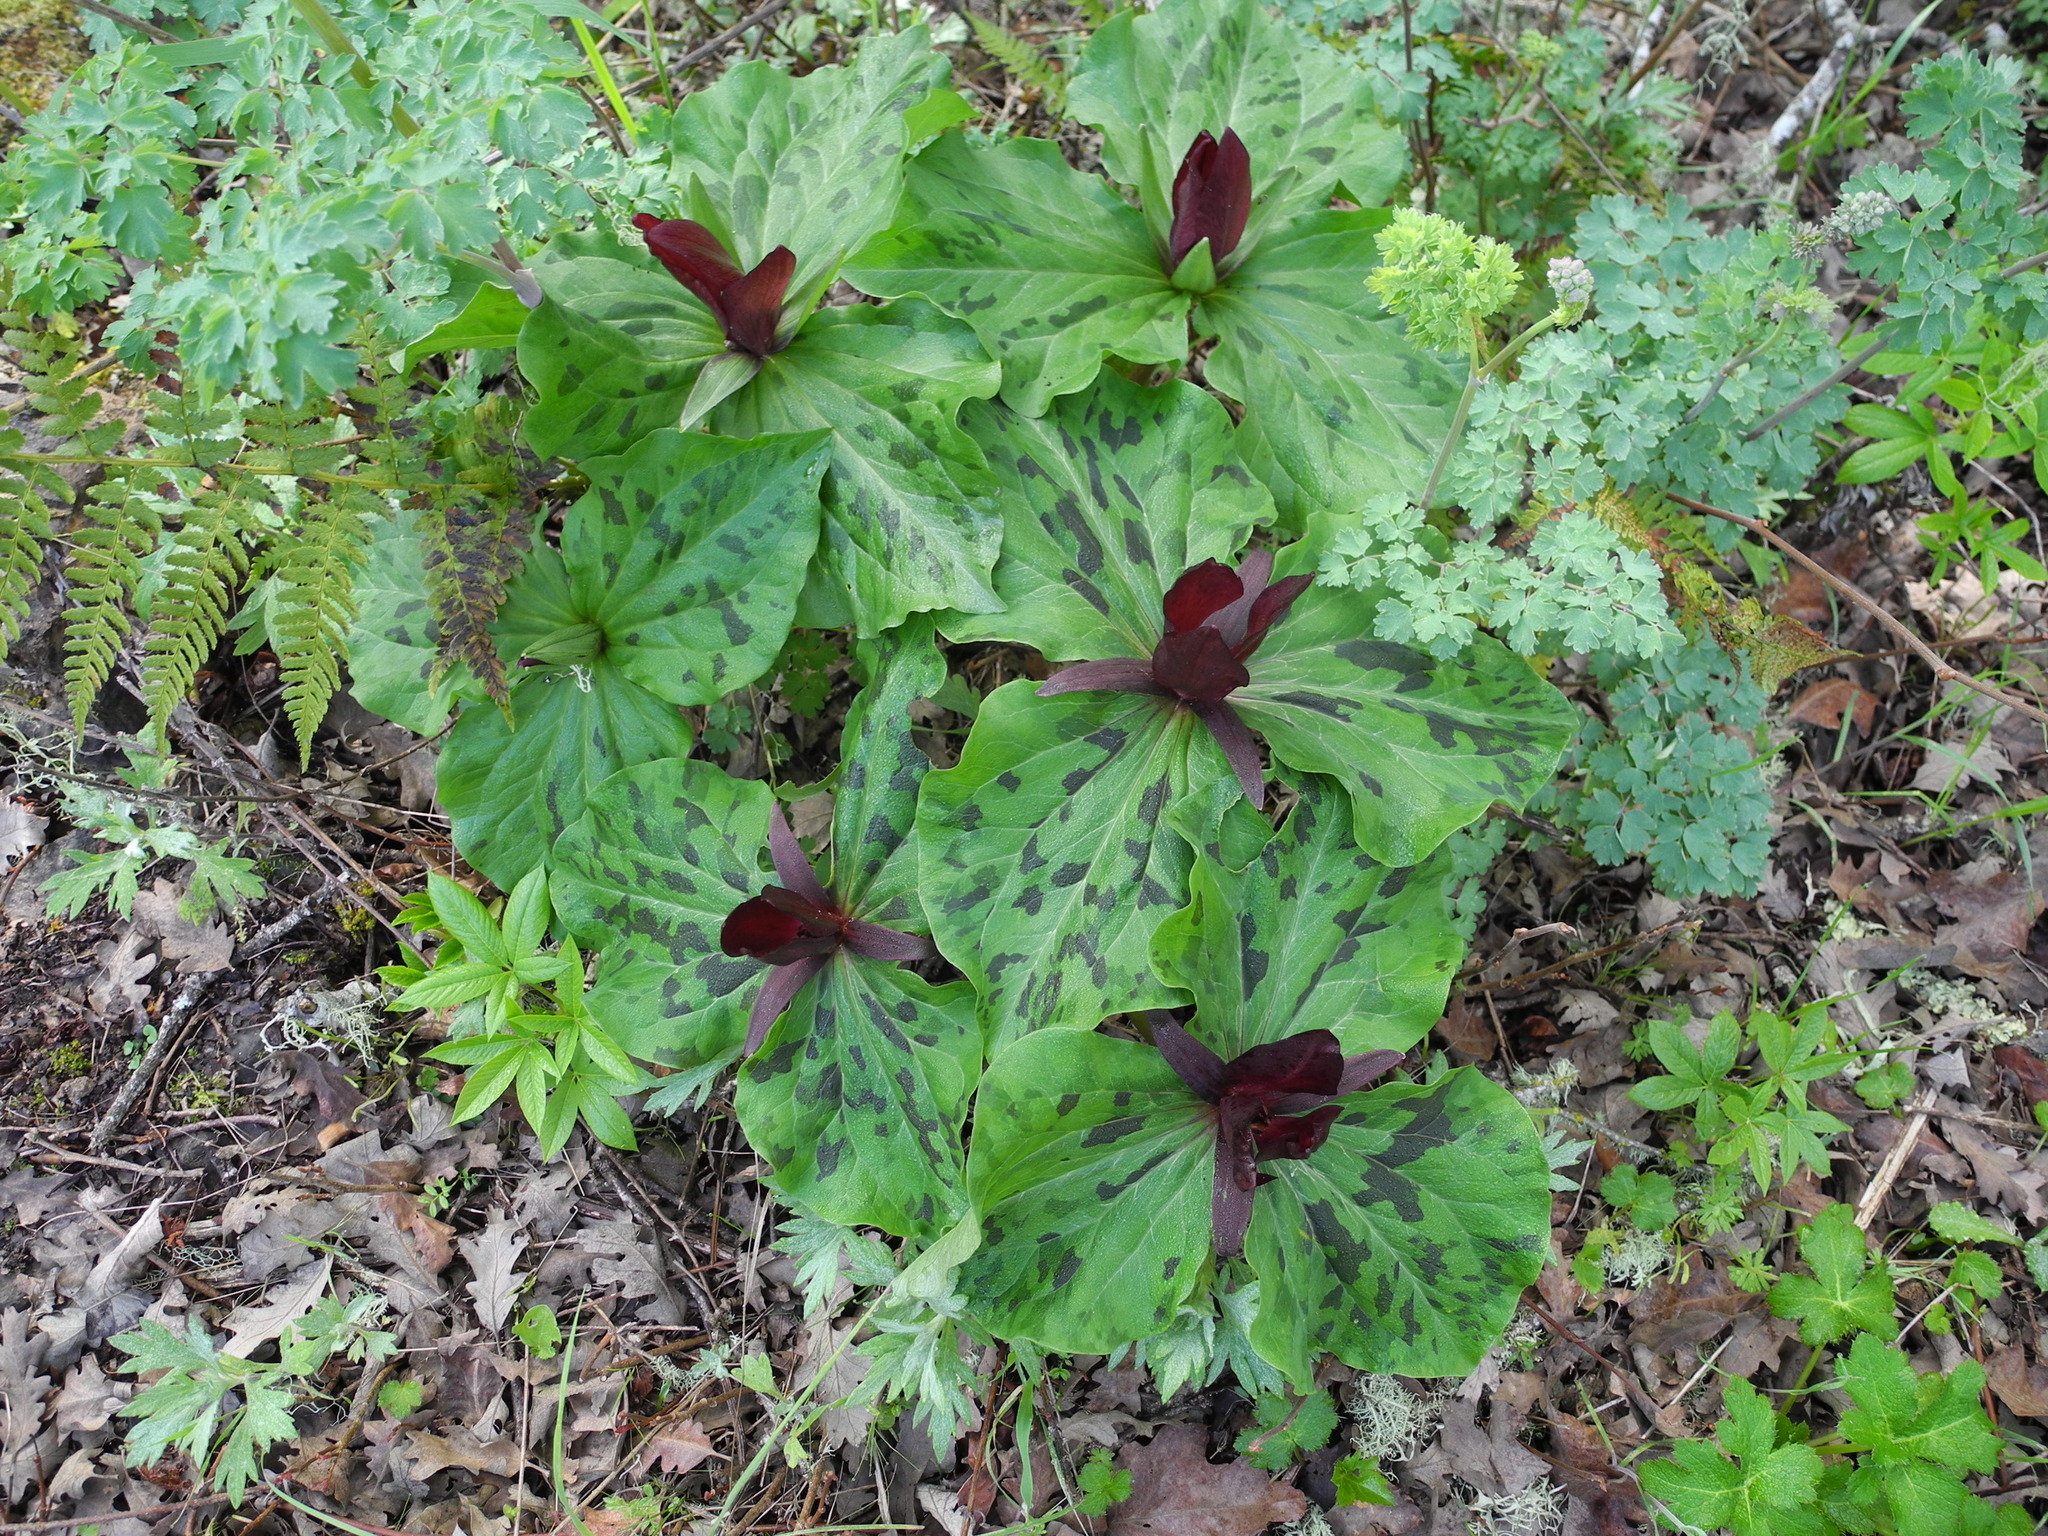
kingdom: Plantae
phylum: Tracheophyta
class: Liliopsida
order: Liliales
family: Melanthiaceae
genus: Trillium
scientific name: Trillium chloropetalum
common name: Giant trillium
